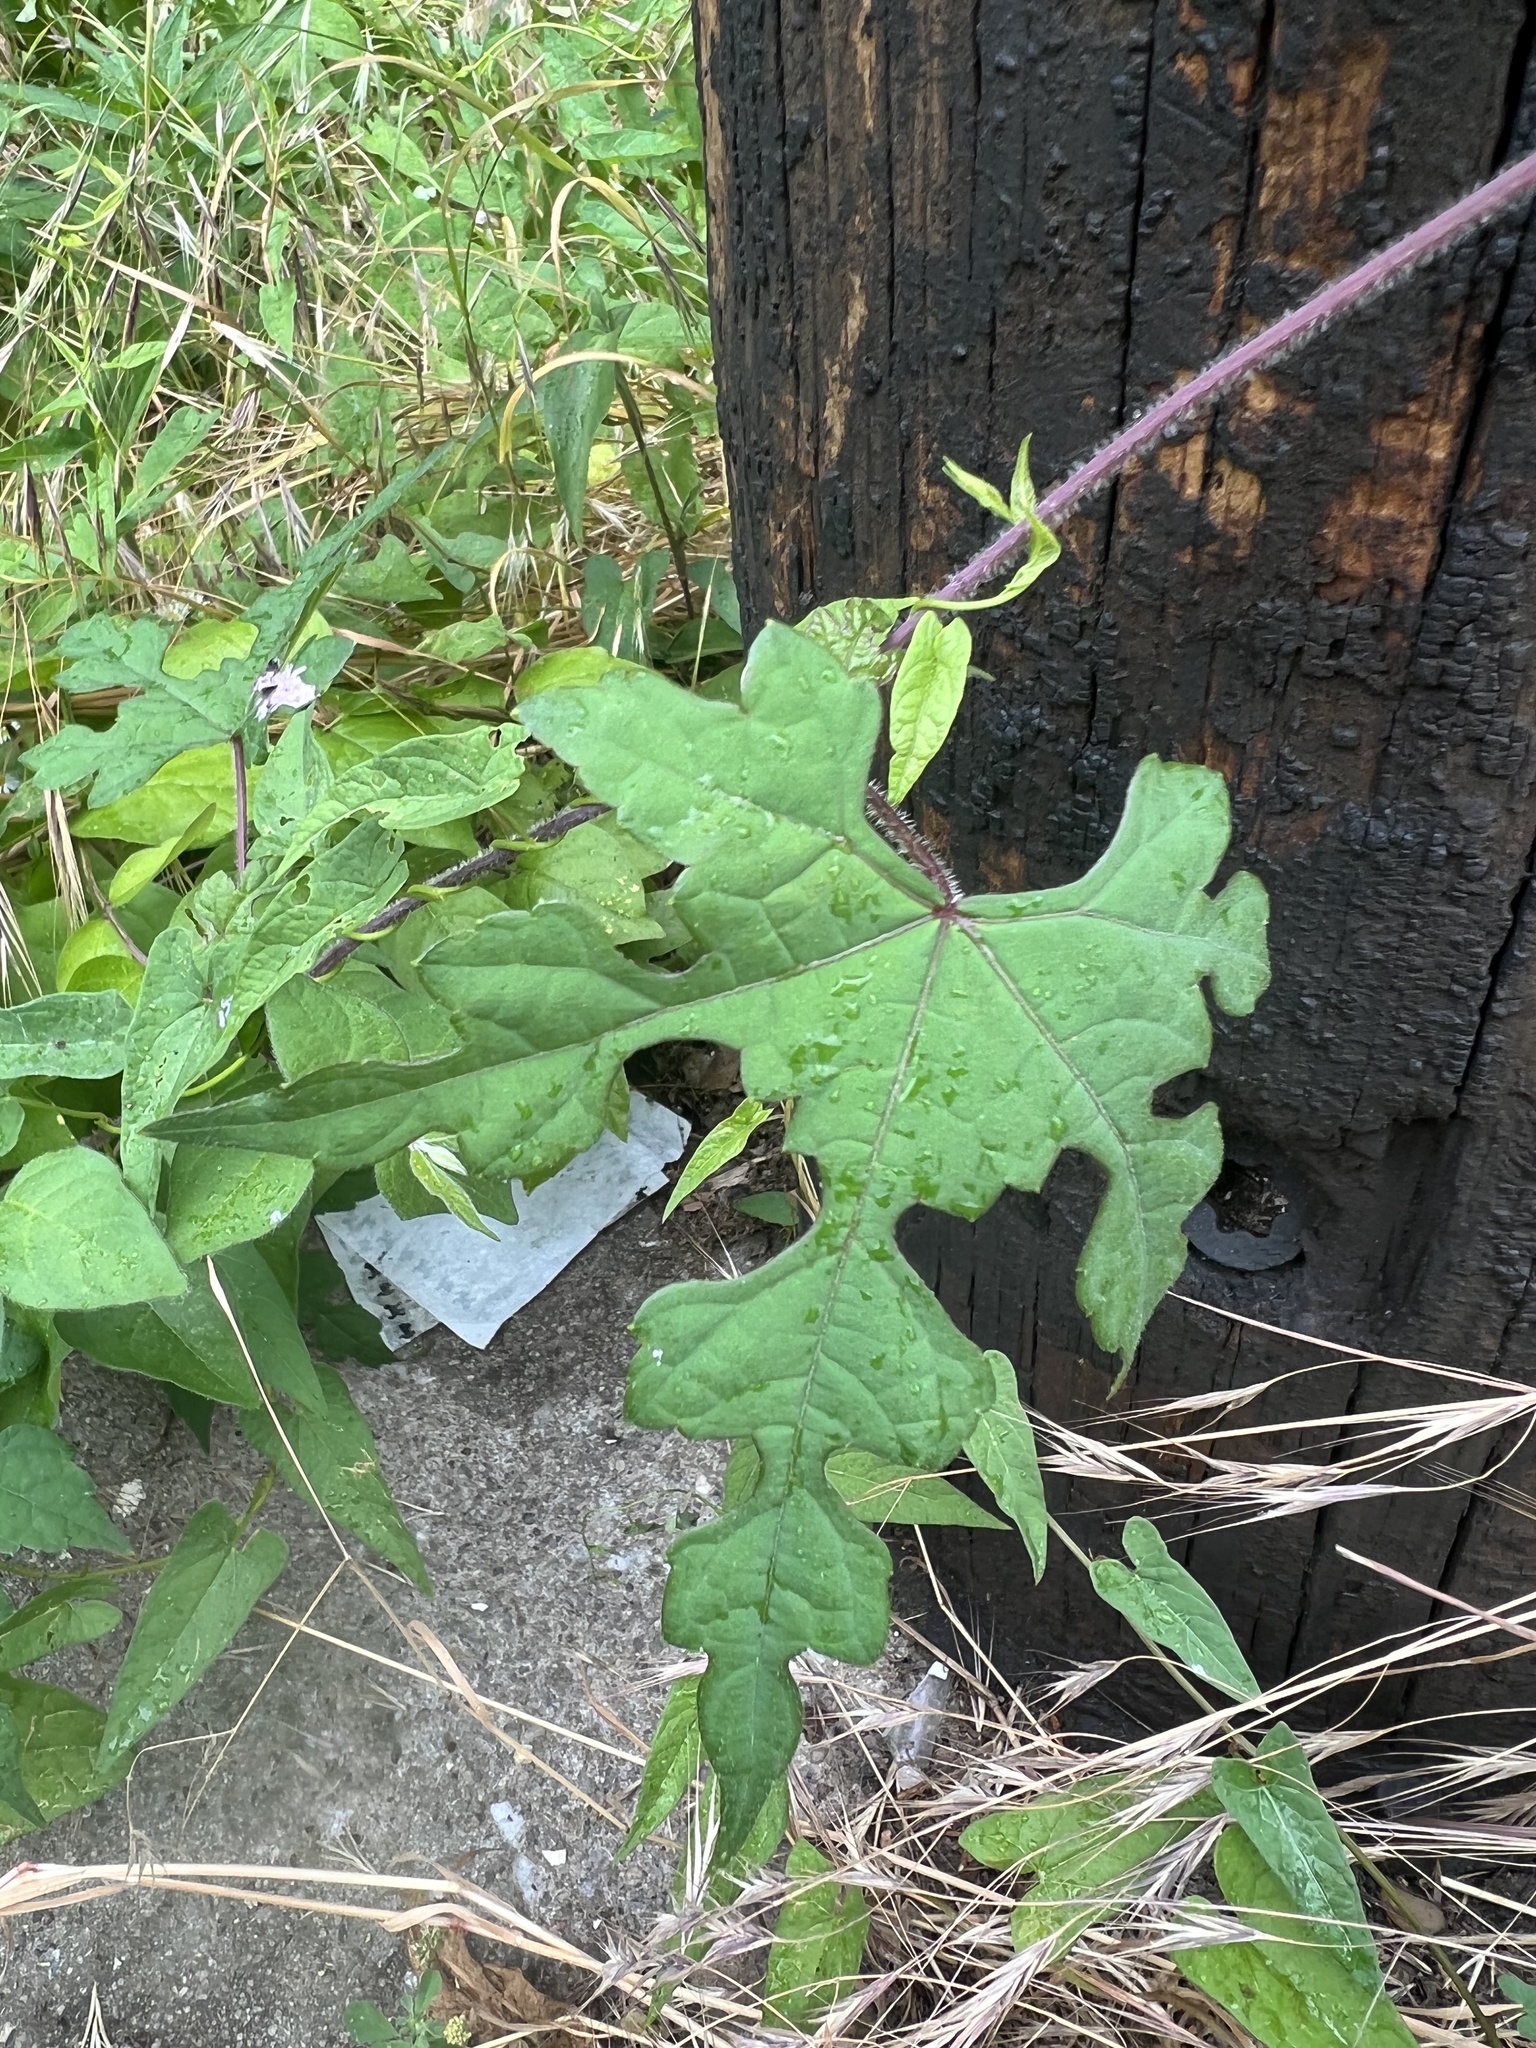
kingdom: Plantae
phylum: Tracheophyta
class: Magnoliopsida
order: Vitales
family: Vitaceae
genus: Ampelopsis
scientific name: Ampelopsis glandulosa
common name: Amur peppervine
